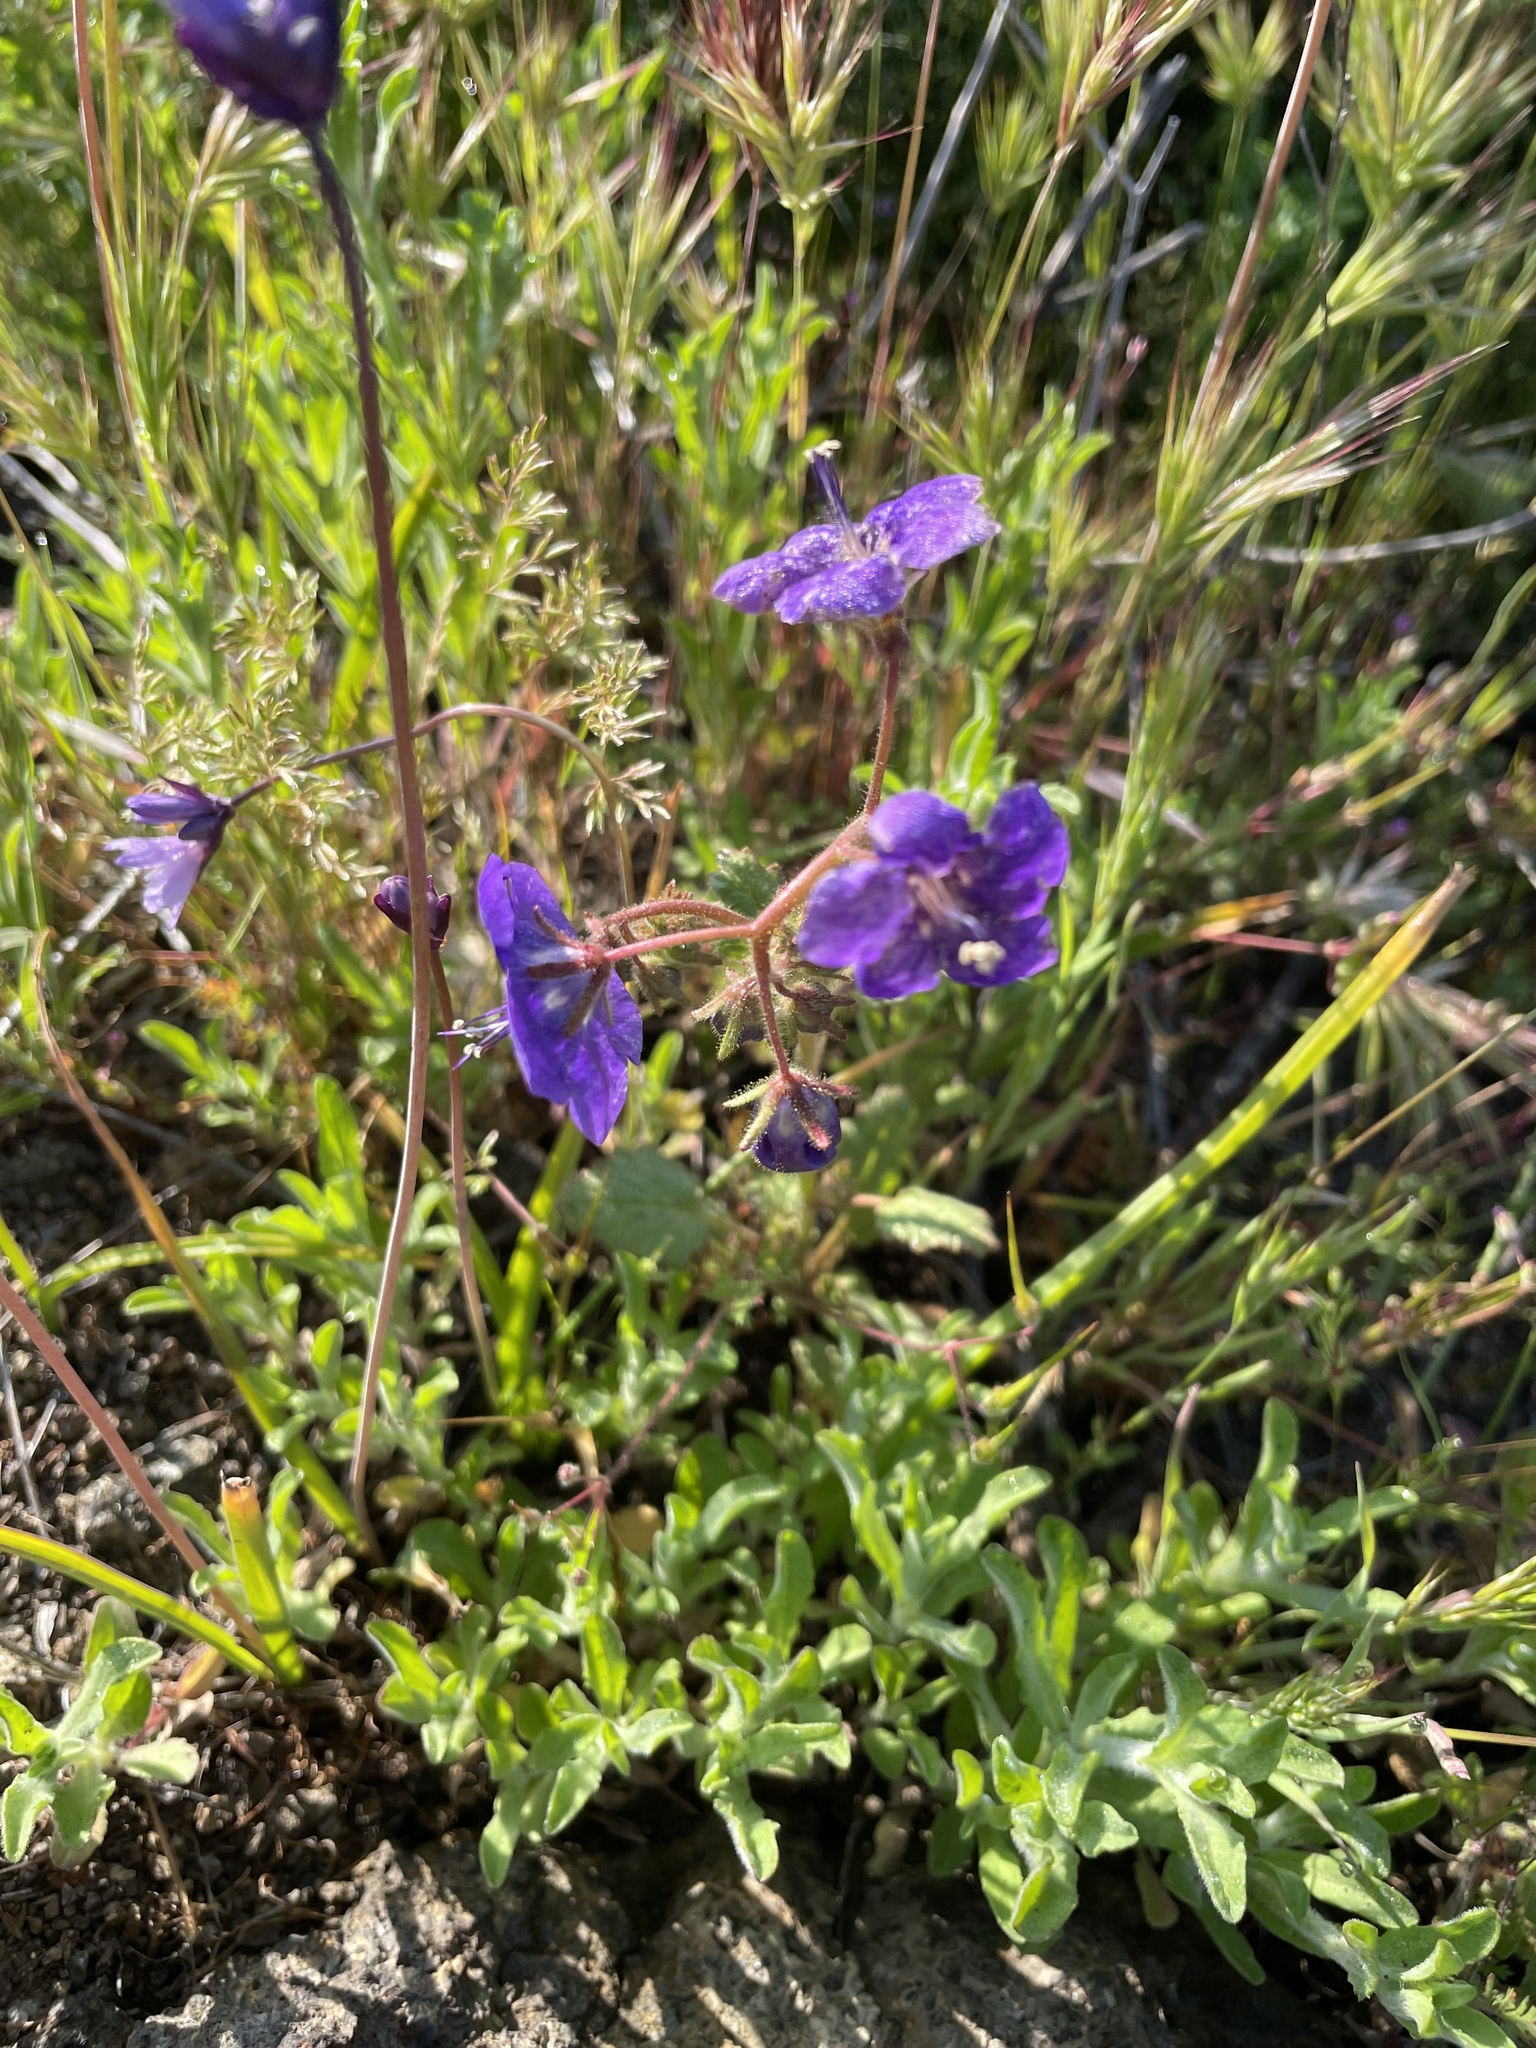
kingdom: Plantae
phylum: Tracheophyta
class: Magnoliopsida
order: Boraginales
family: Hydrophyllaceae
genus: Phacelia
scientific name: Phacelia parryi
